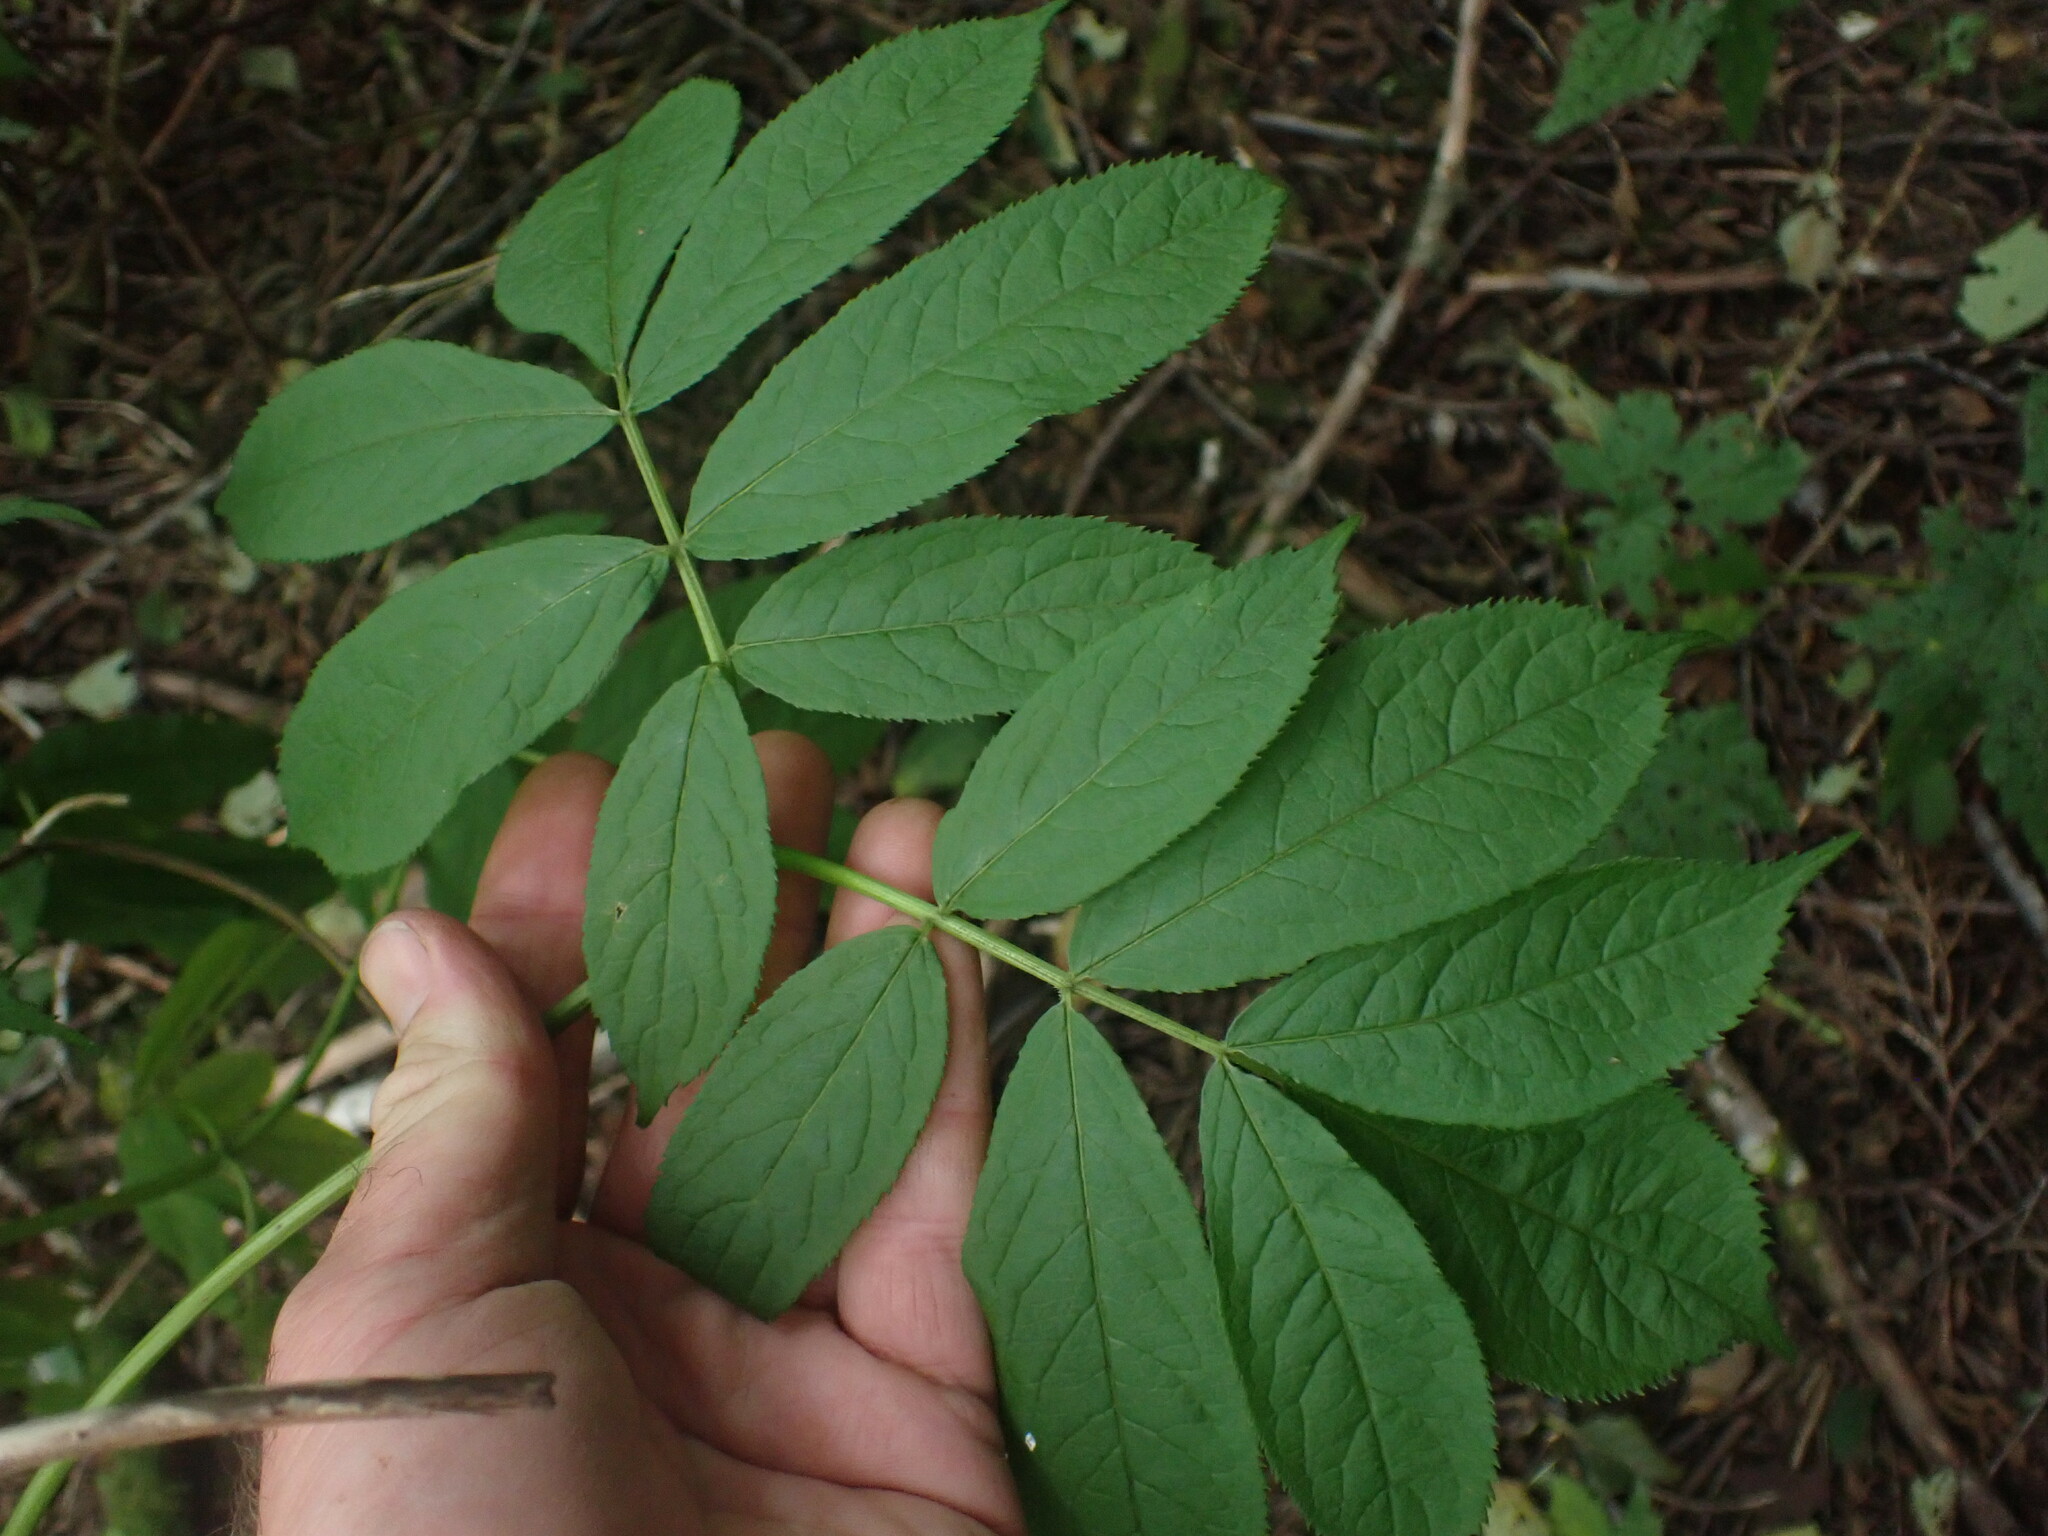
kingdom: Plantae
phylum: Tracheophyta
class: Magnoliopsida
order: Dipsacales
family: Viburnaceae
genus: Sambucus
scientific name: Sambucus racemosa
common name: Red-berried elder
